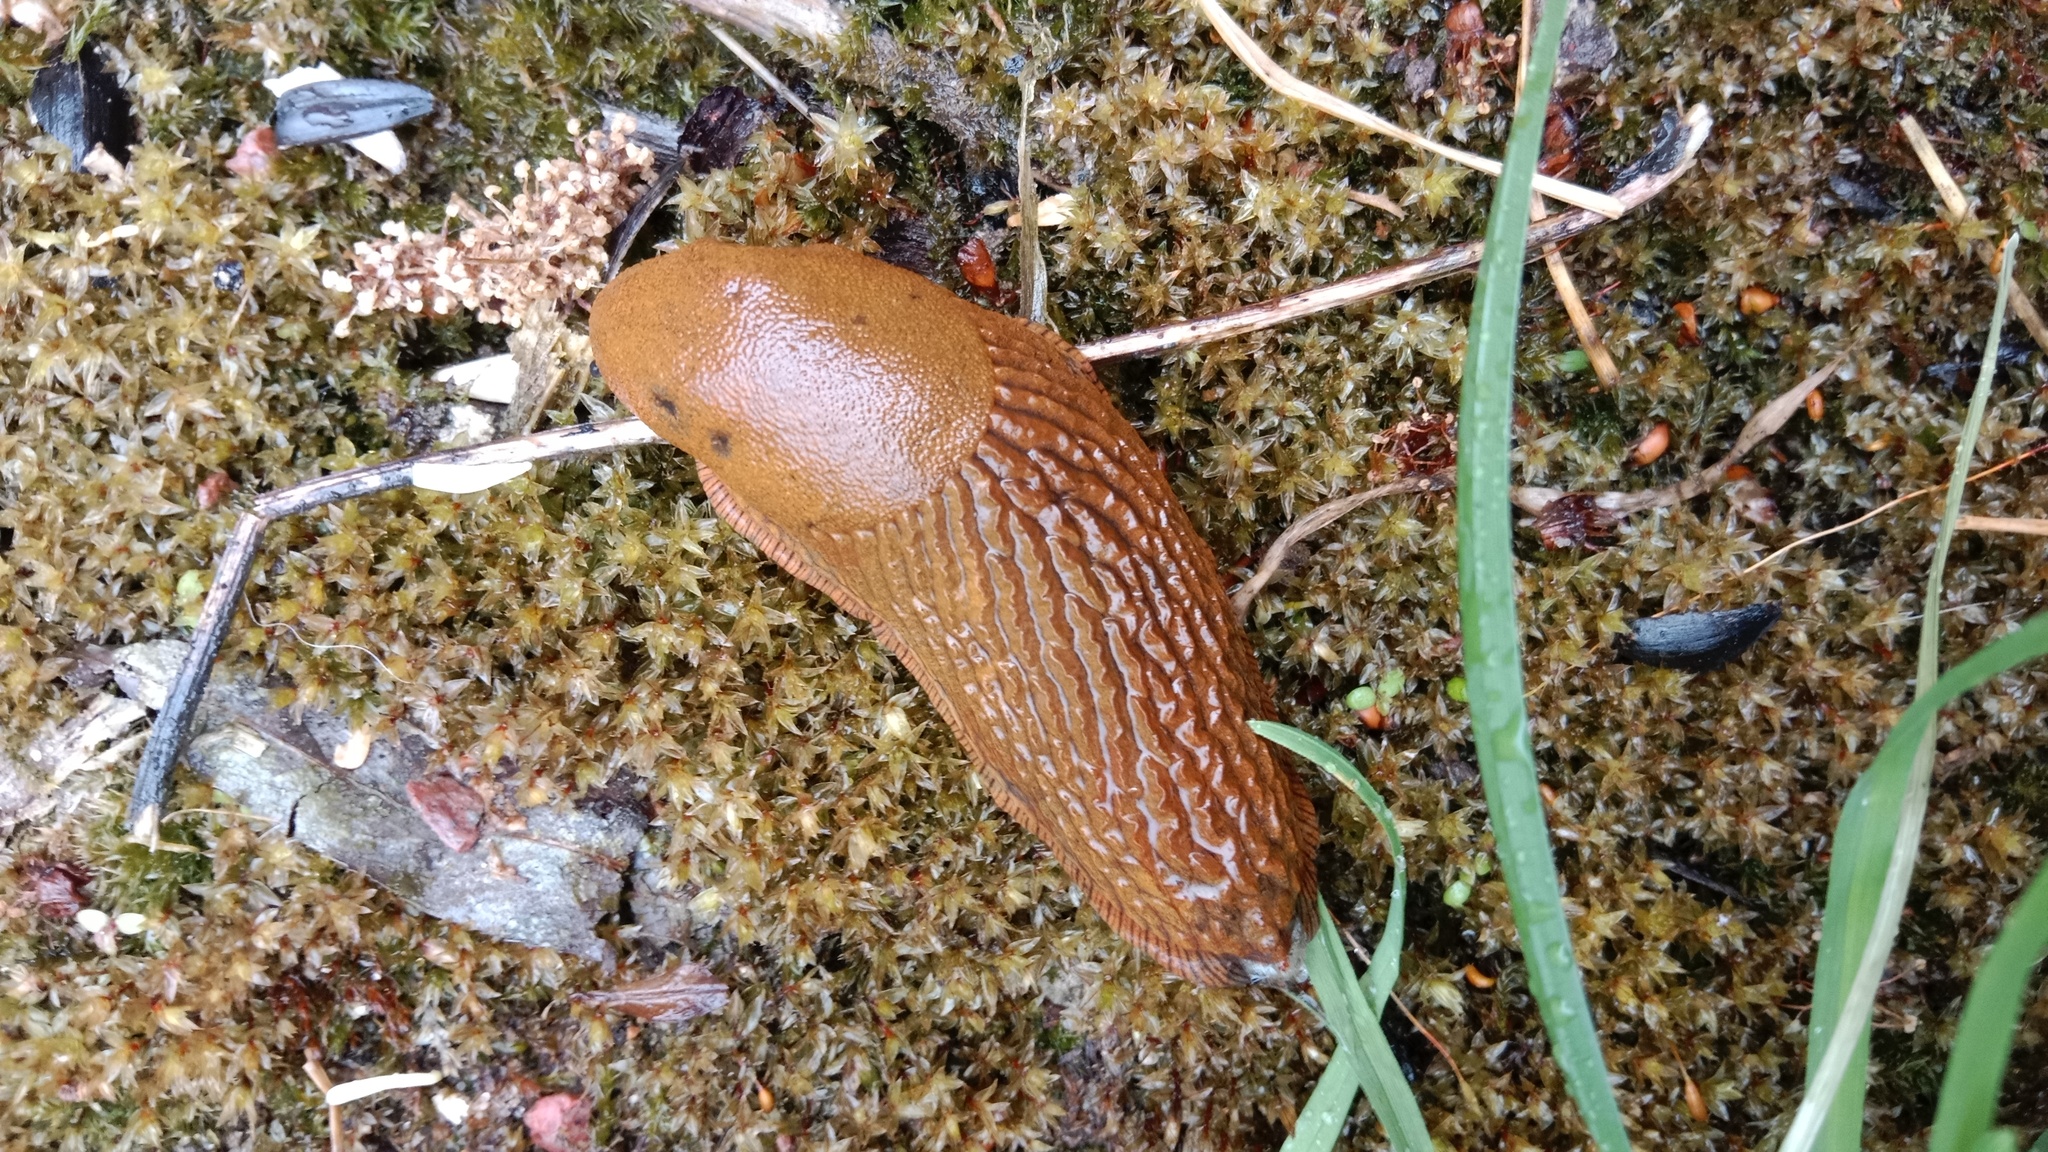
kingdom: Animalia
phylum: Mollusca
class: Gastropoda
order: Stylommatophora
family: Arionidae
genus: Arion
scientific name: Arion vulgaris
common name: Lusitanian slug
